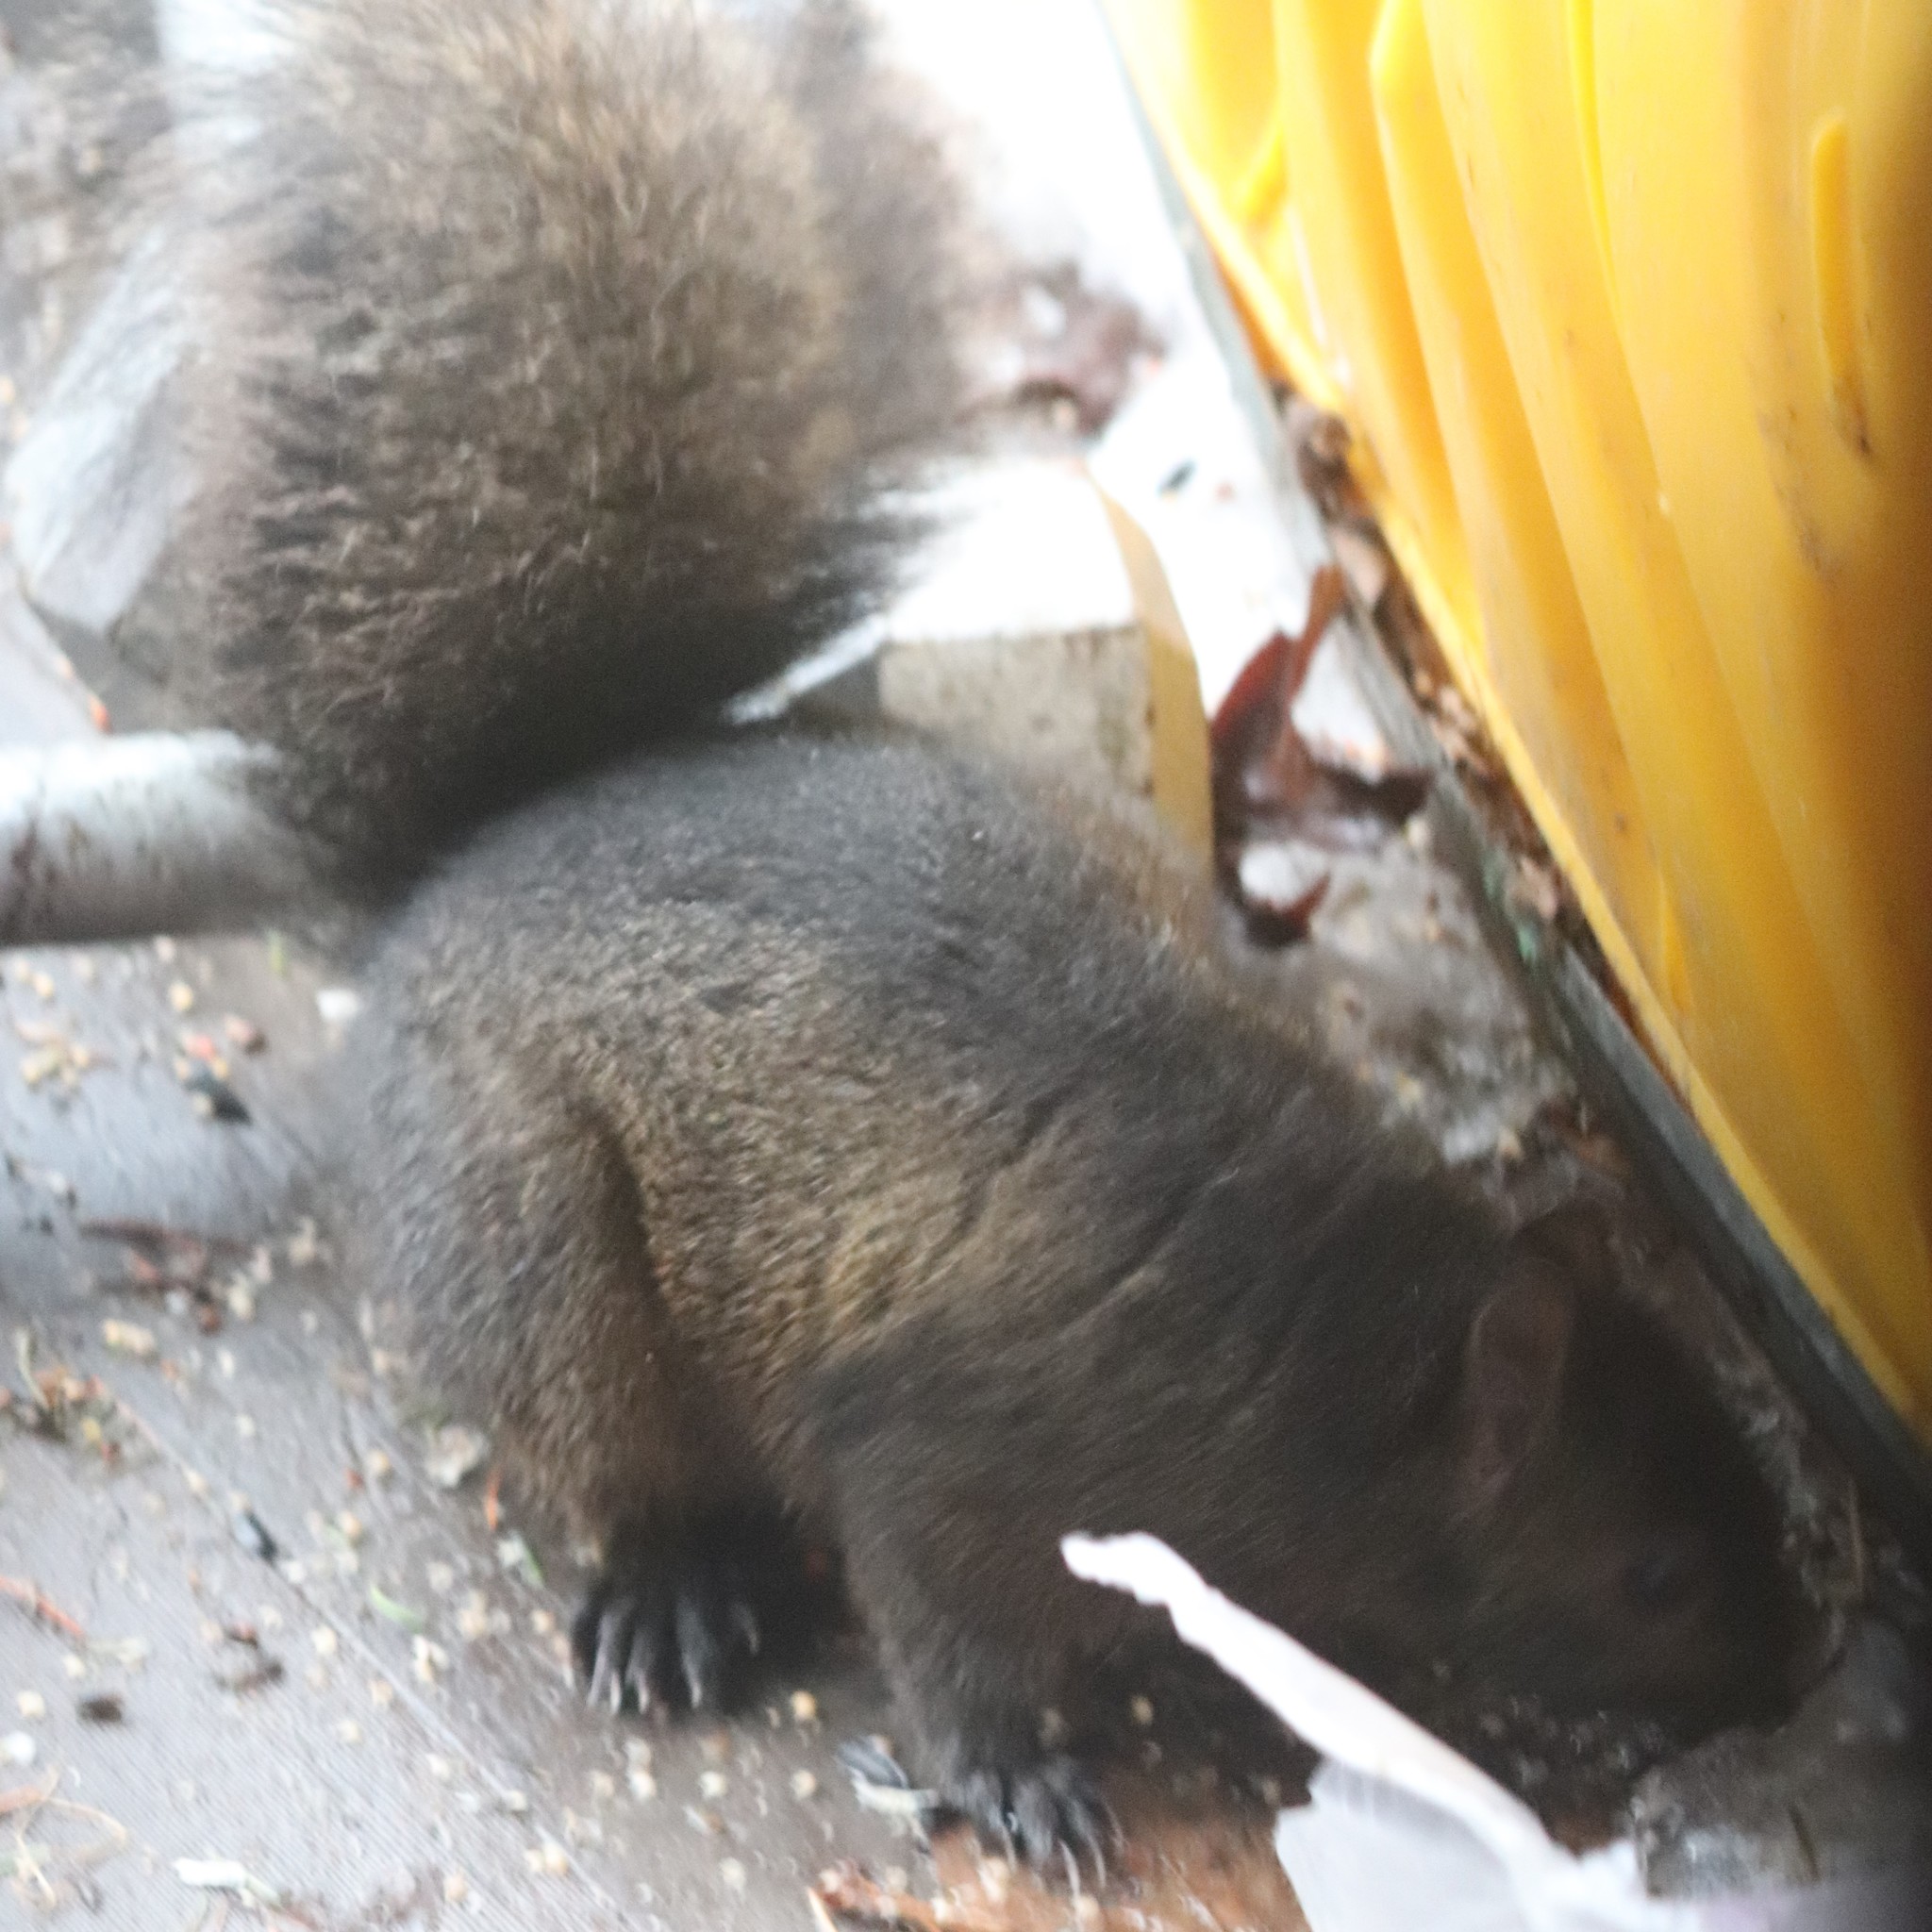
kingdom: Animalia
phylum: Chordata
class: Mammalia
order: Rodentia
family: Sciuridae
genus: Sciurus
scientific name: Sciurus carolinensis
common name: Eastern gray squirrel
